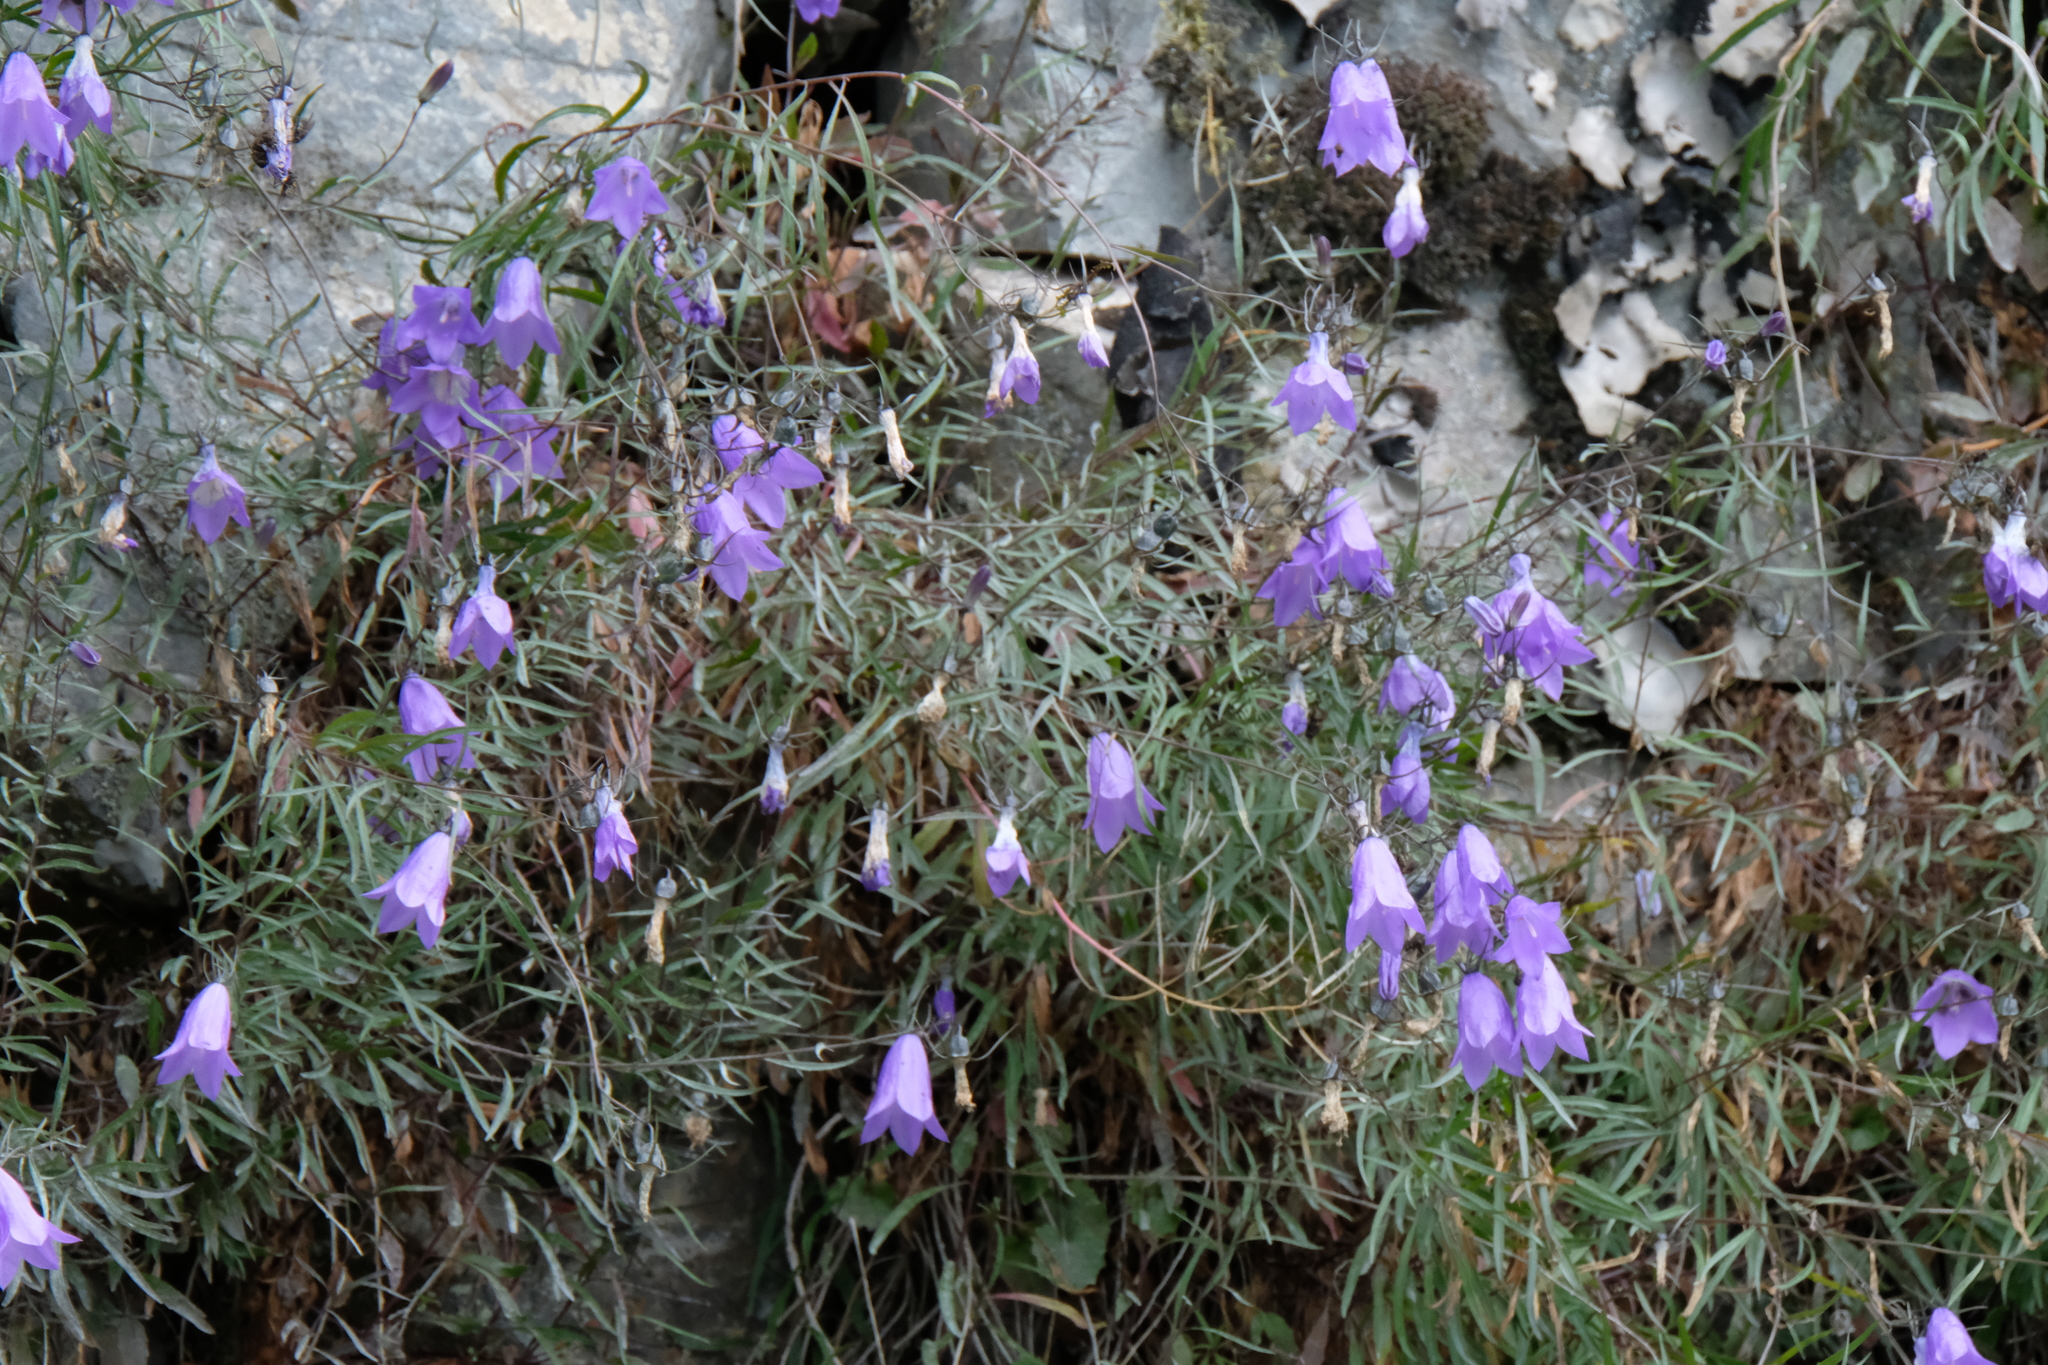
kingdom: Plantae
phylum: Tracheophyta
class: Magnoliopsida
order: Asterales
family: Campanulaceae
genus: Campanula
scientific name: Campanula alaskana
